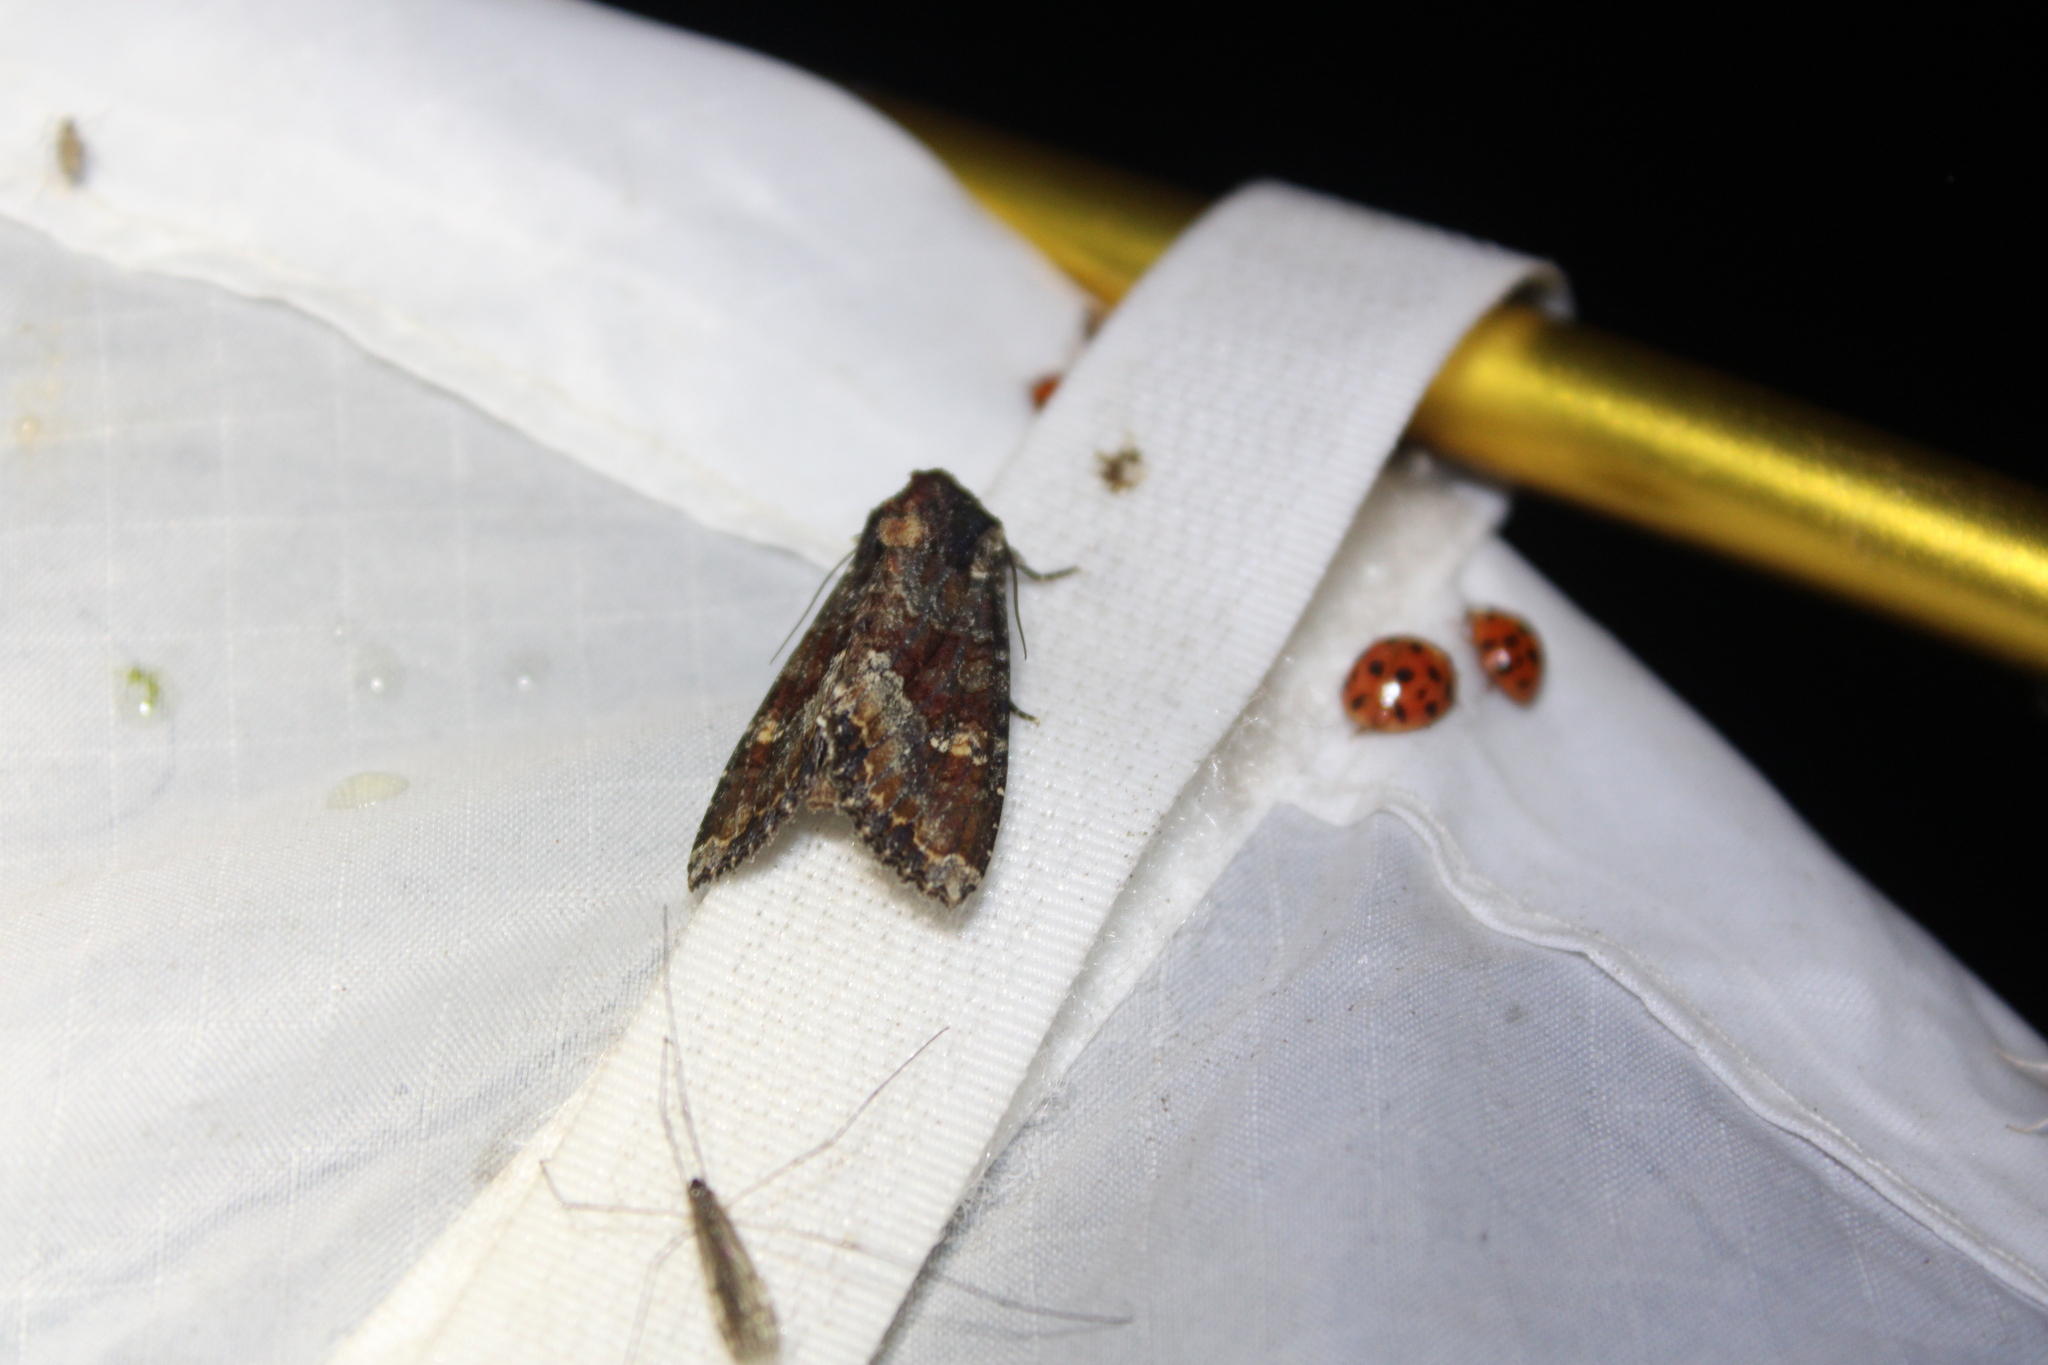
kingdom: Animalia
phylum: Arthropoda
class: Insecta
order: Lepidoptera
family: Noctuidae
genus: Apamea
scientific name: Apamea amputatrix
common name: Yellow-headed cutworm moth
